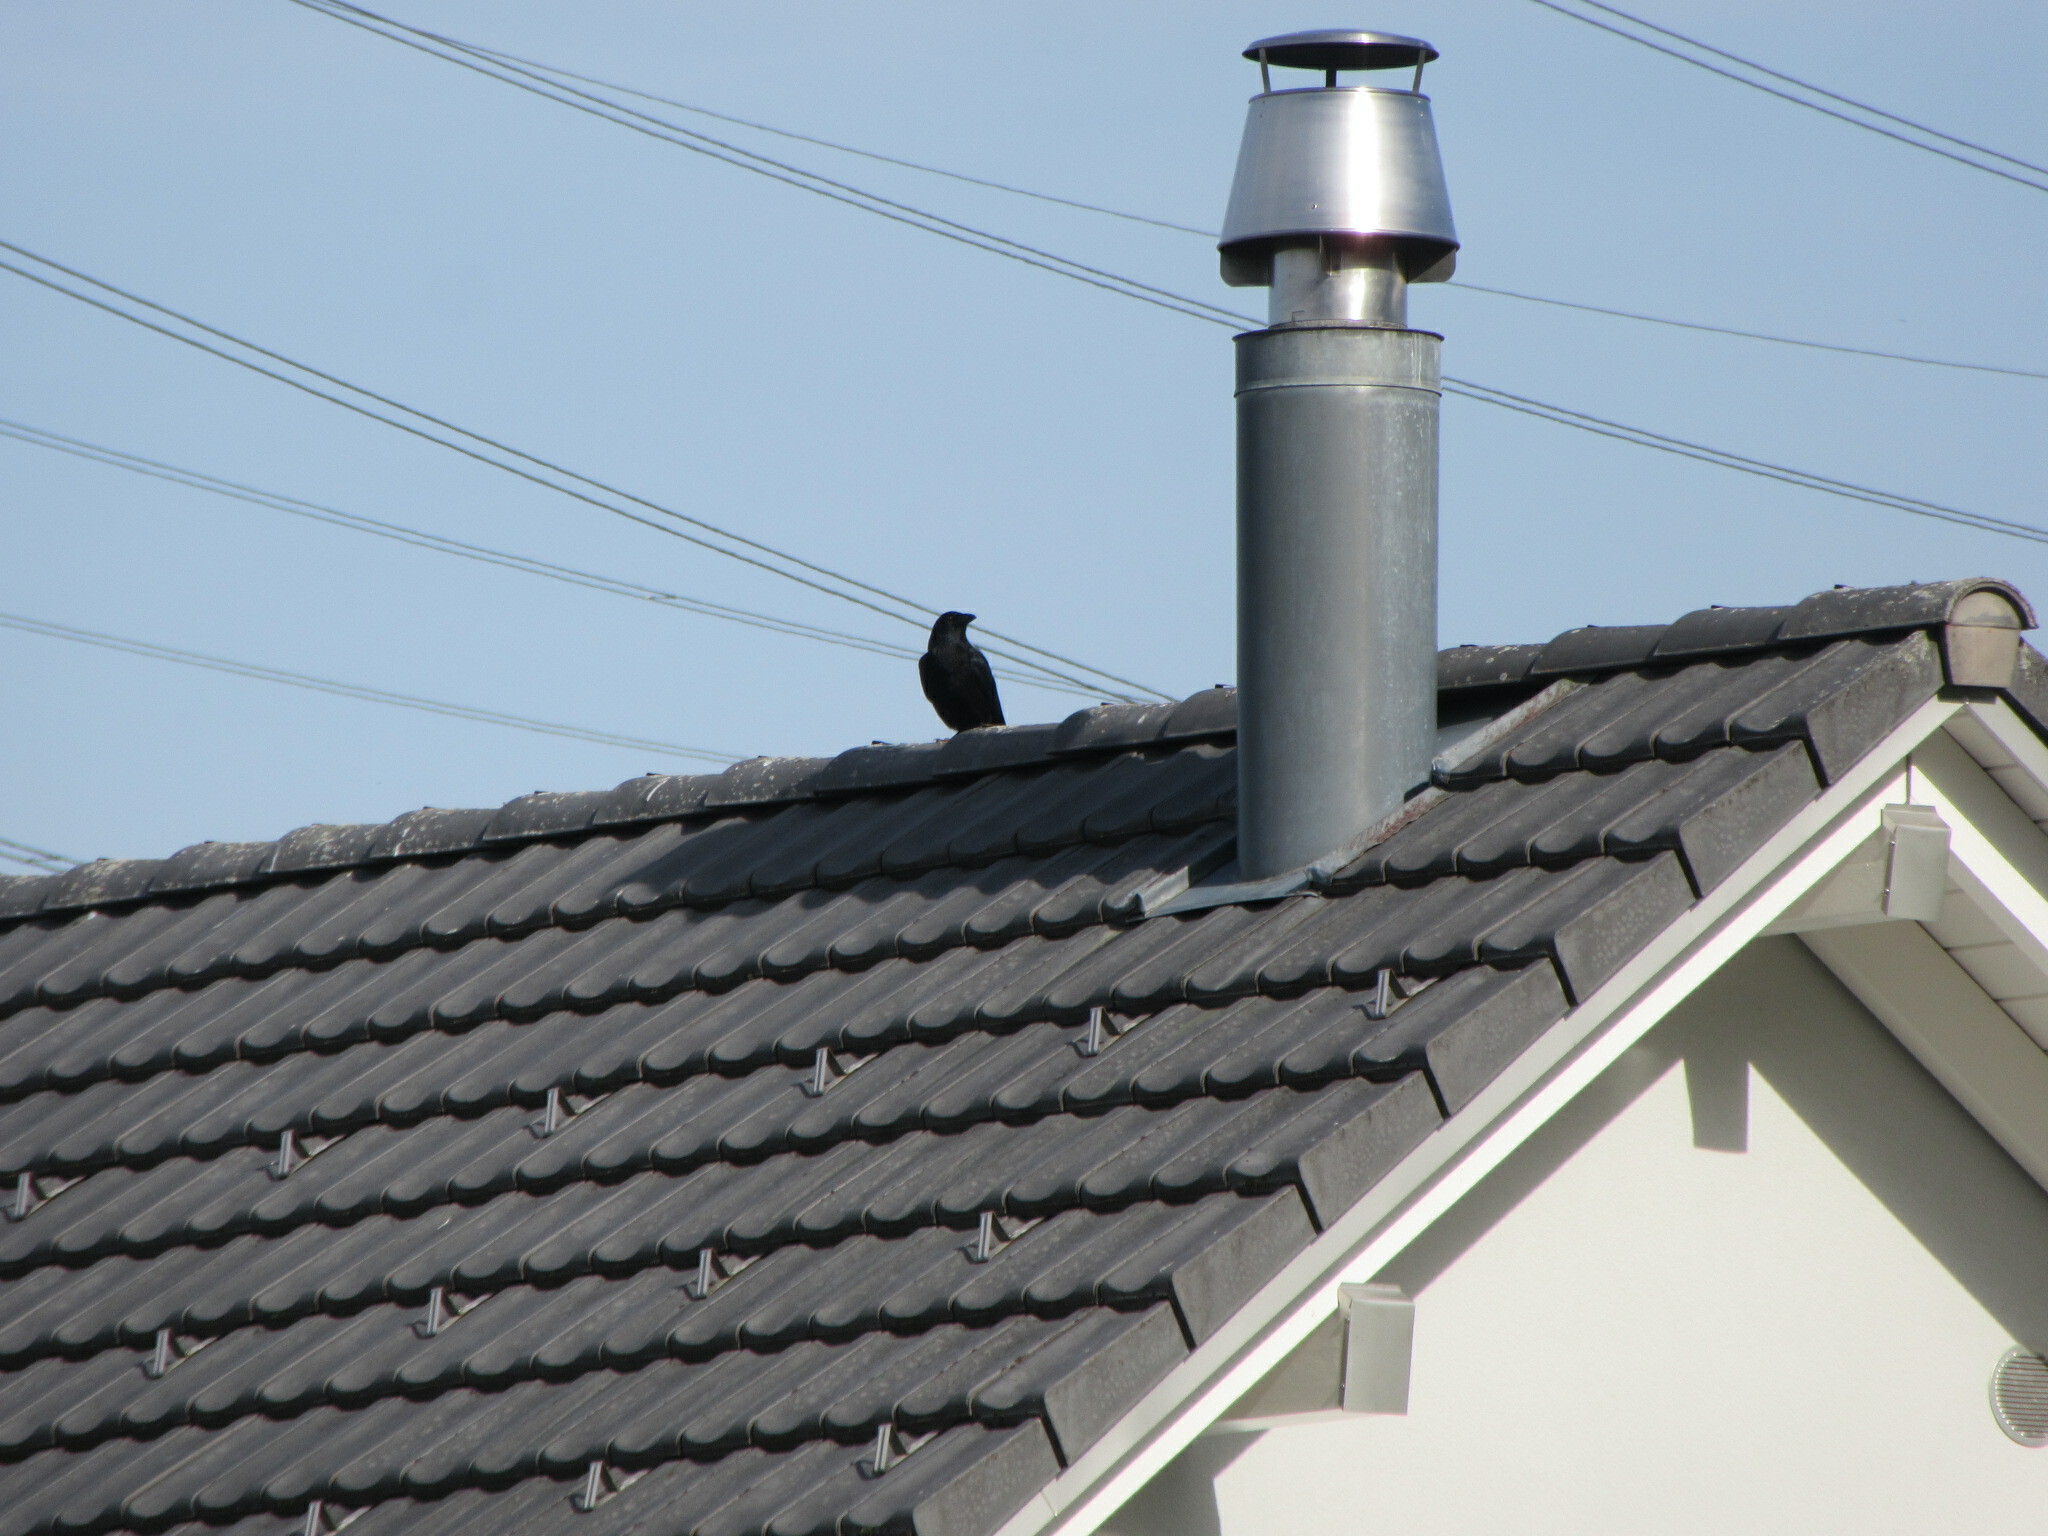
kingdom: Animalia
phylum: Chordata
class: Aves
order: Passeriformes
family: Corvidae
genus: Corvus
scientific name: Corvus corone
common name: Carrion crow
